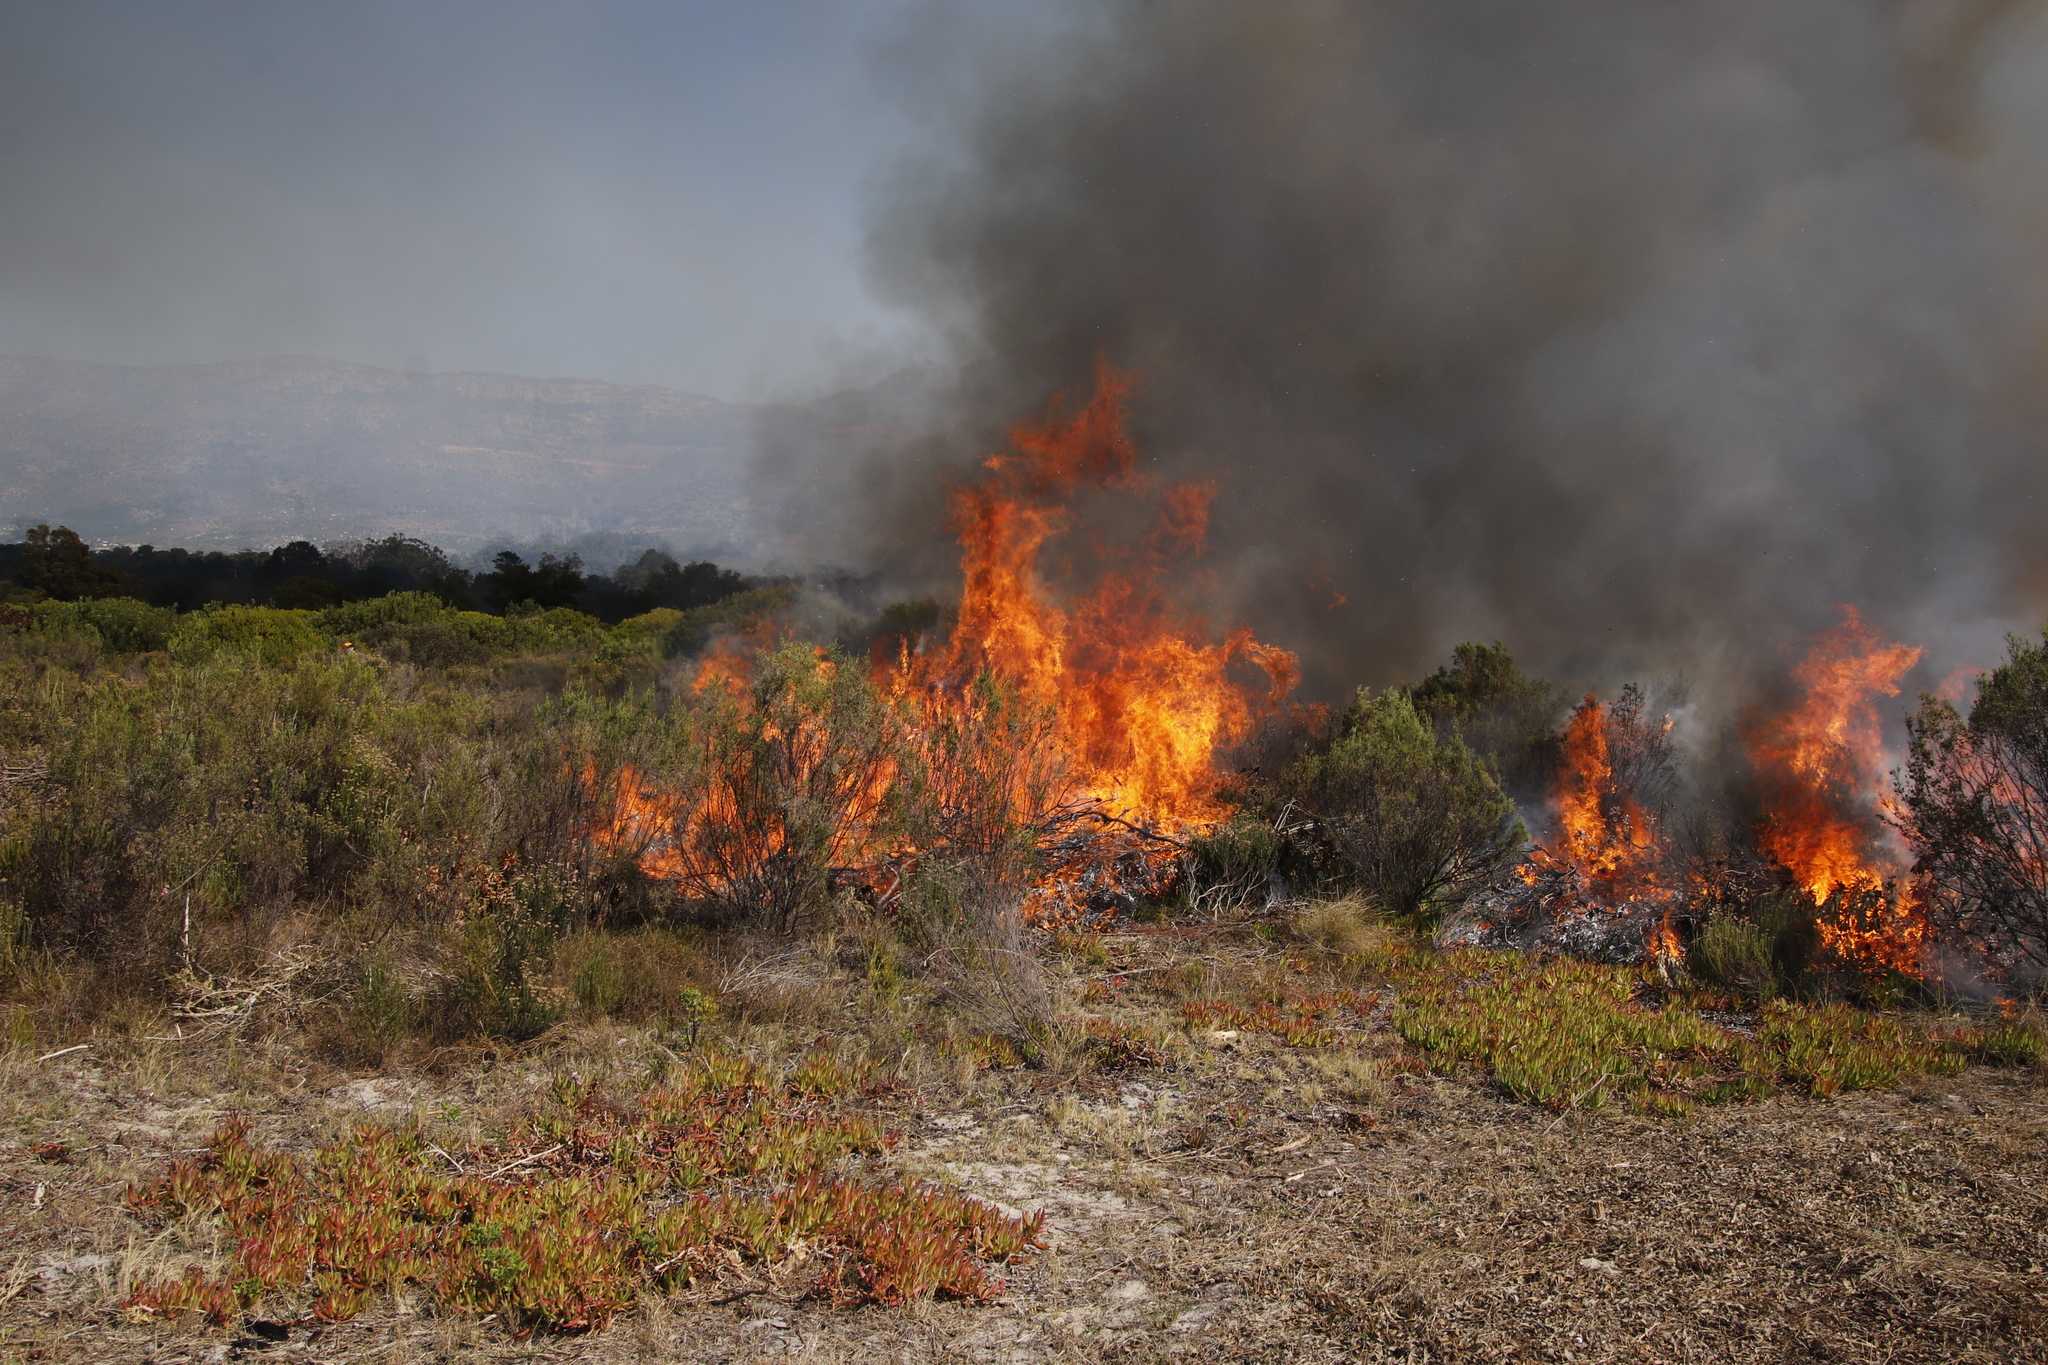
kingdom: Plantae
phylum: Tracheophyta
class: Magnoliopsida
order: Caryophyllales
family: Aizoaceae
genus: Carpobrotus
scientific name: Carpobrotus edulis
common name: Hottentot-fig
